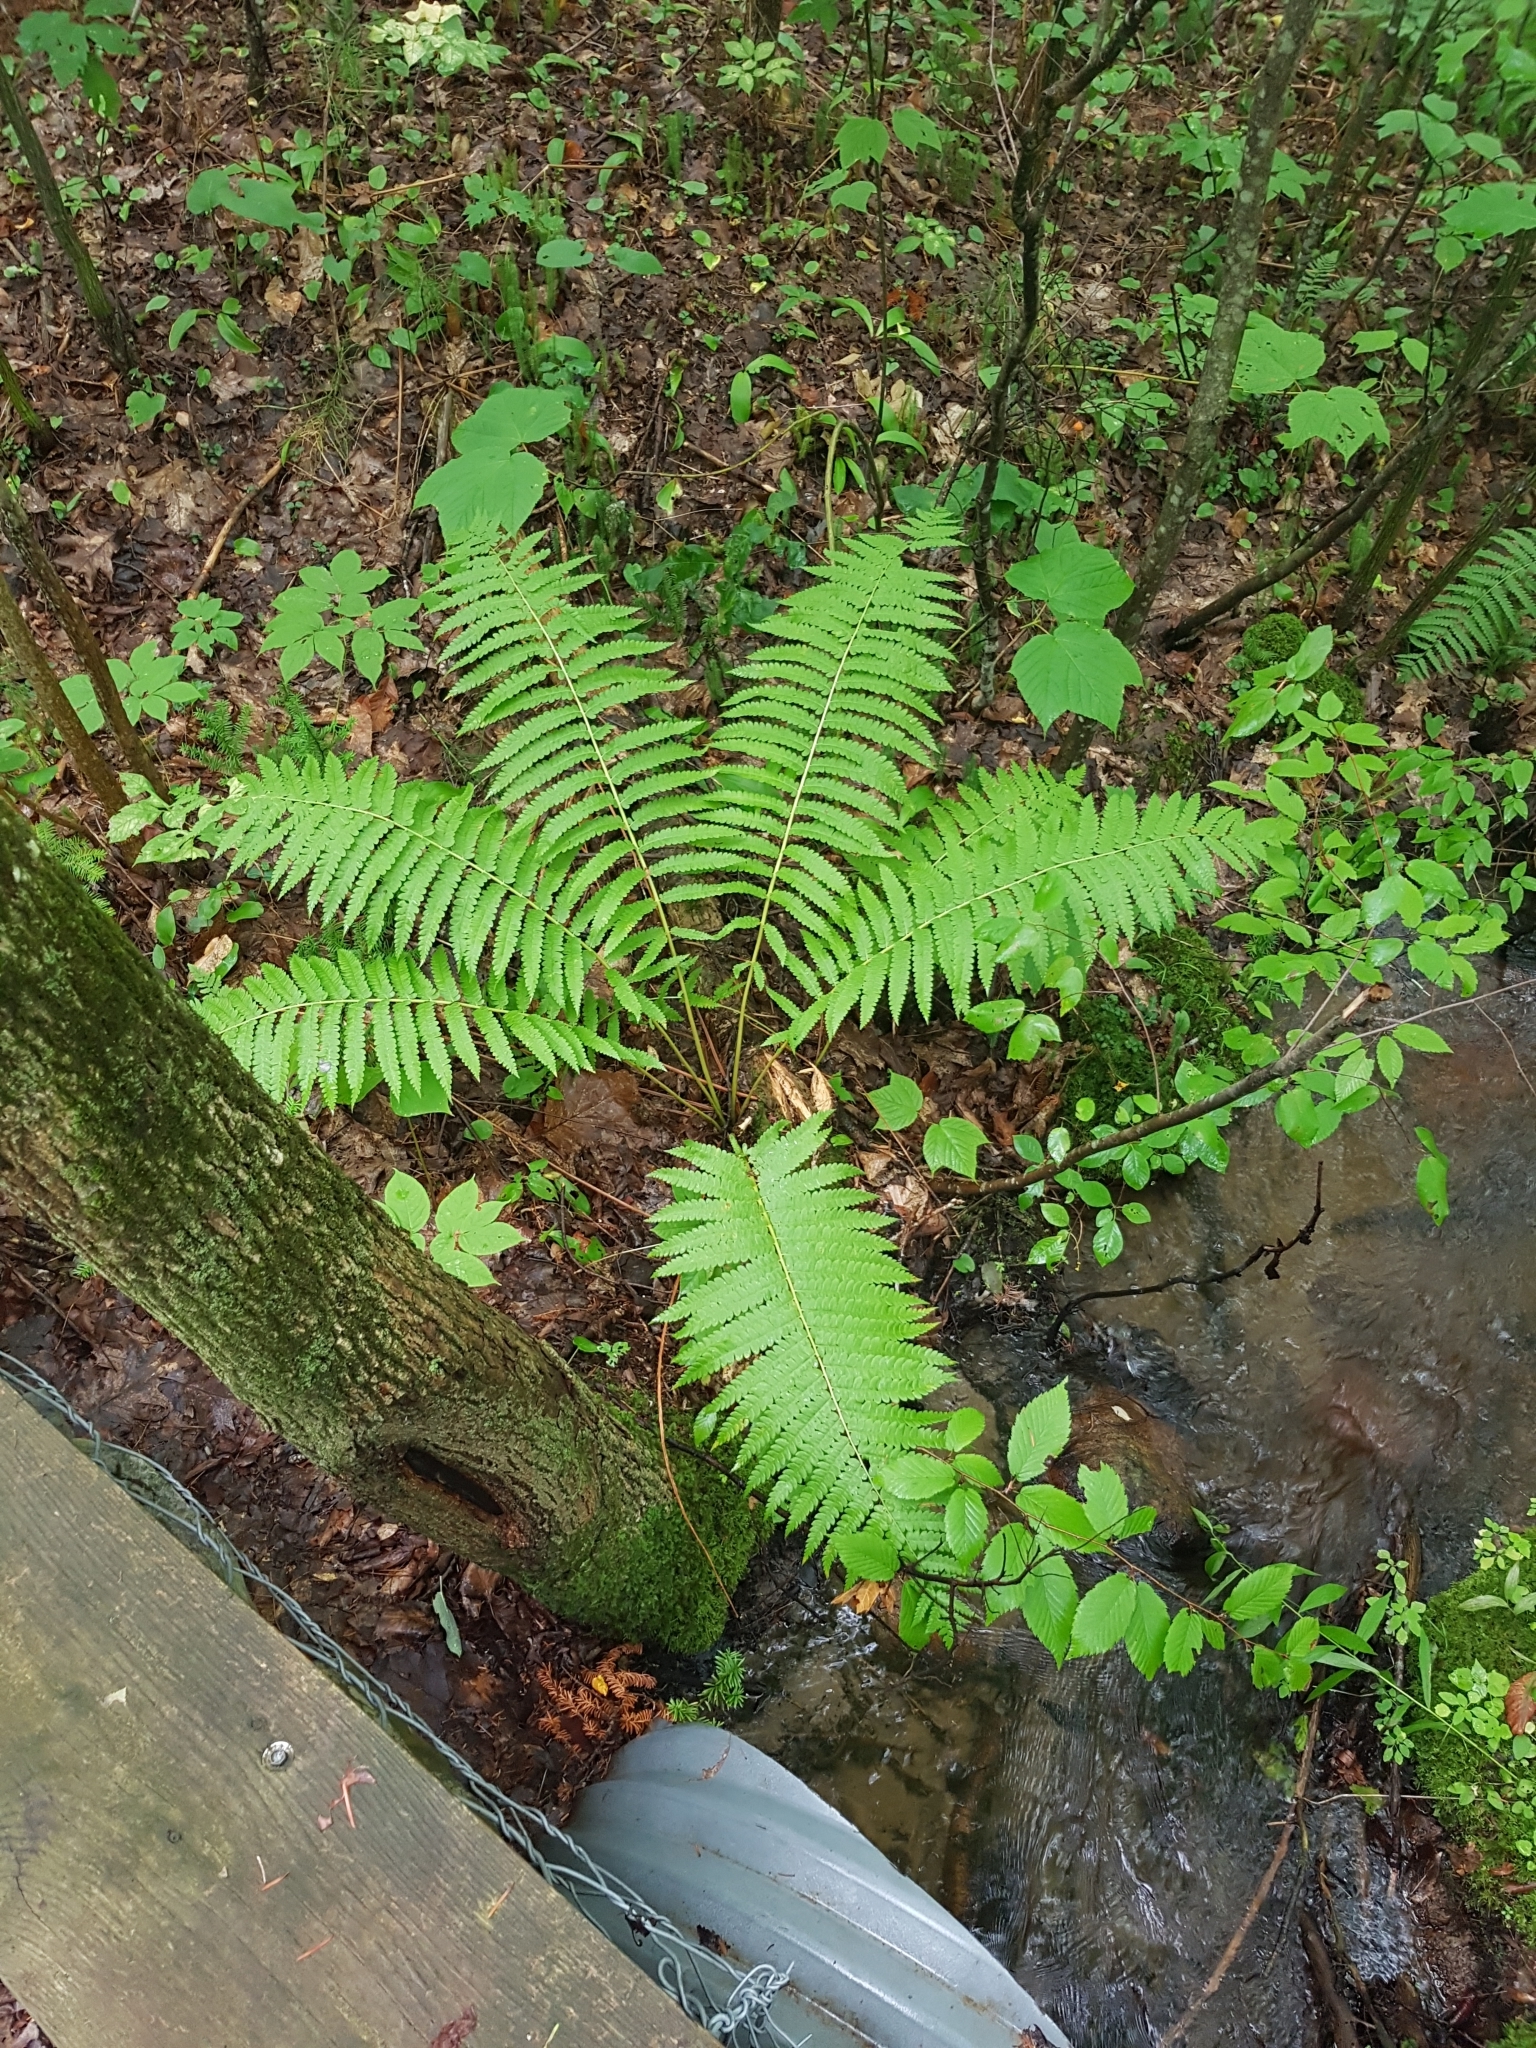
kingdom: Plantae
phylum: Tracheophyta
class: Polypodiopsida
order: Osmundales
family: Osmundaceae
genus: Osmundastrum
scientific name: Osmundastrum cinnamomeum
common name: Cinnamon fern
